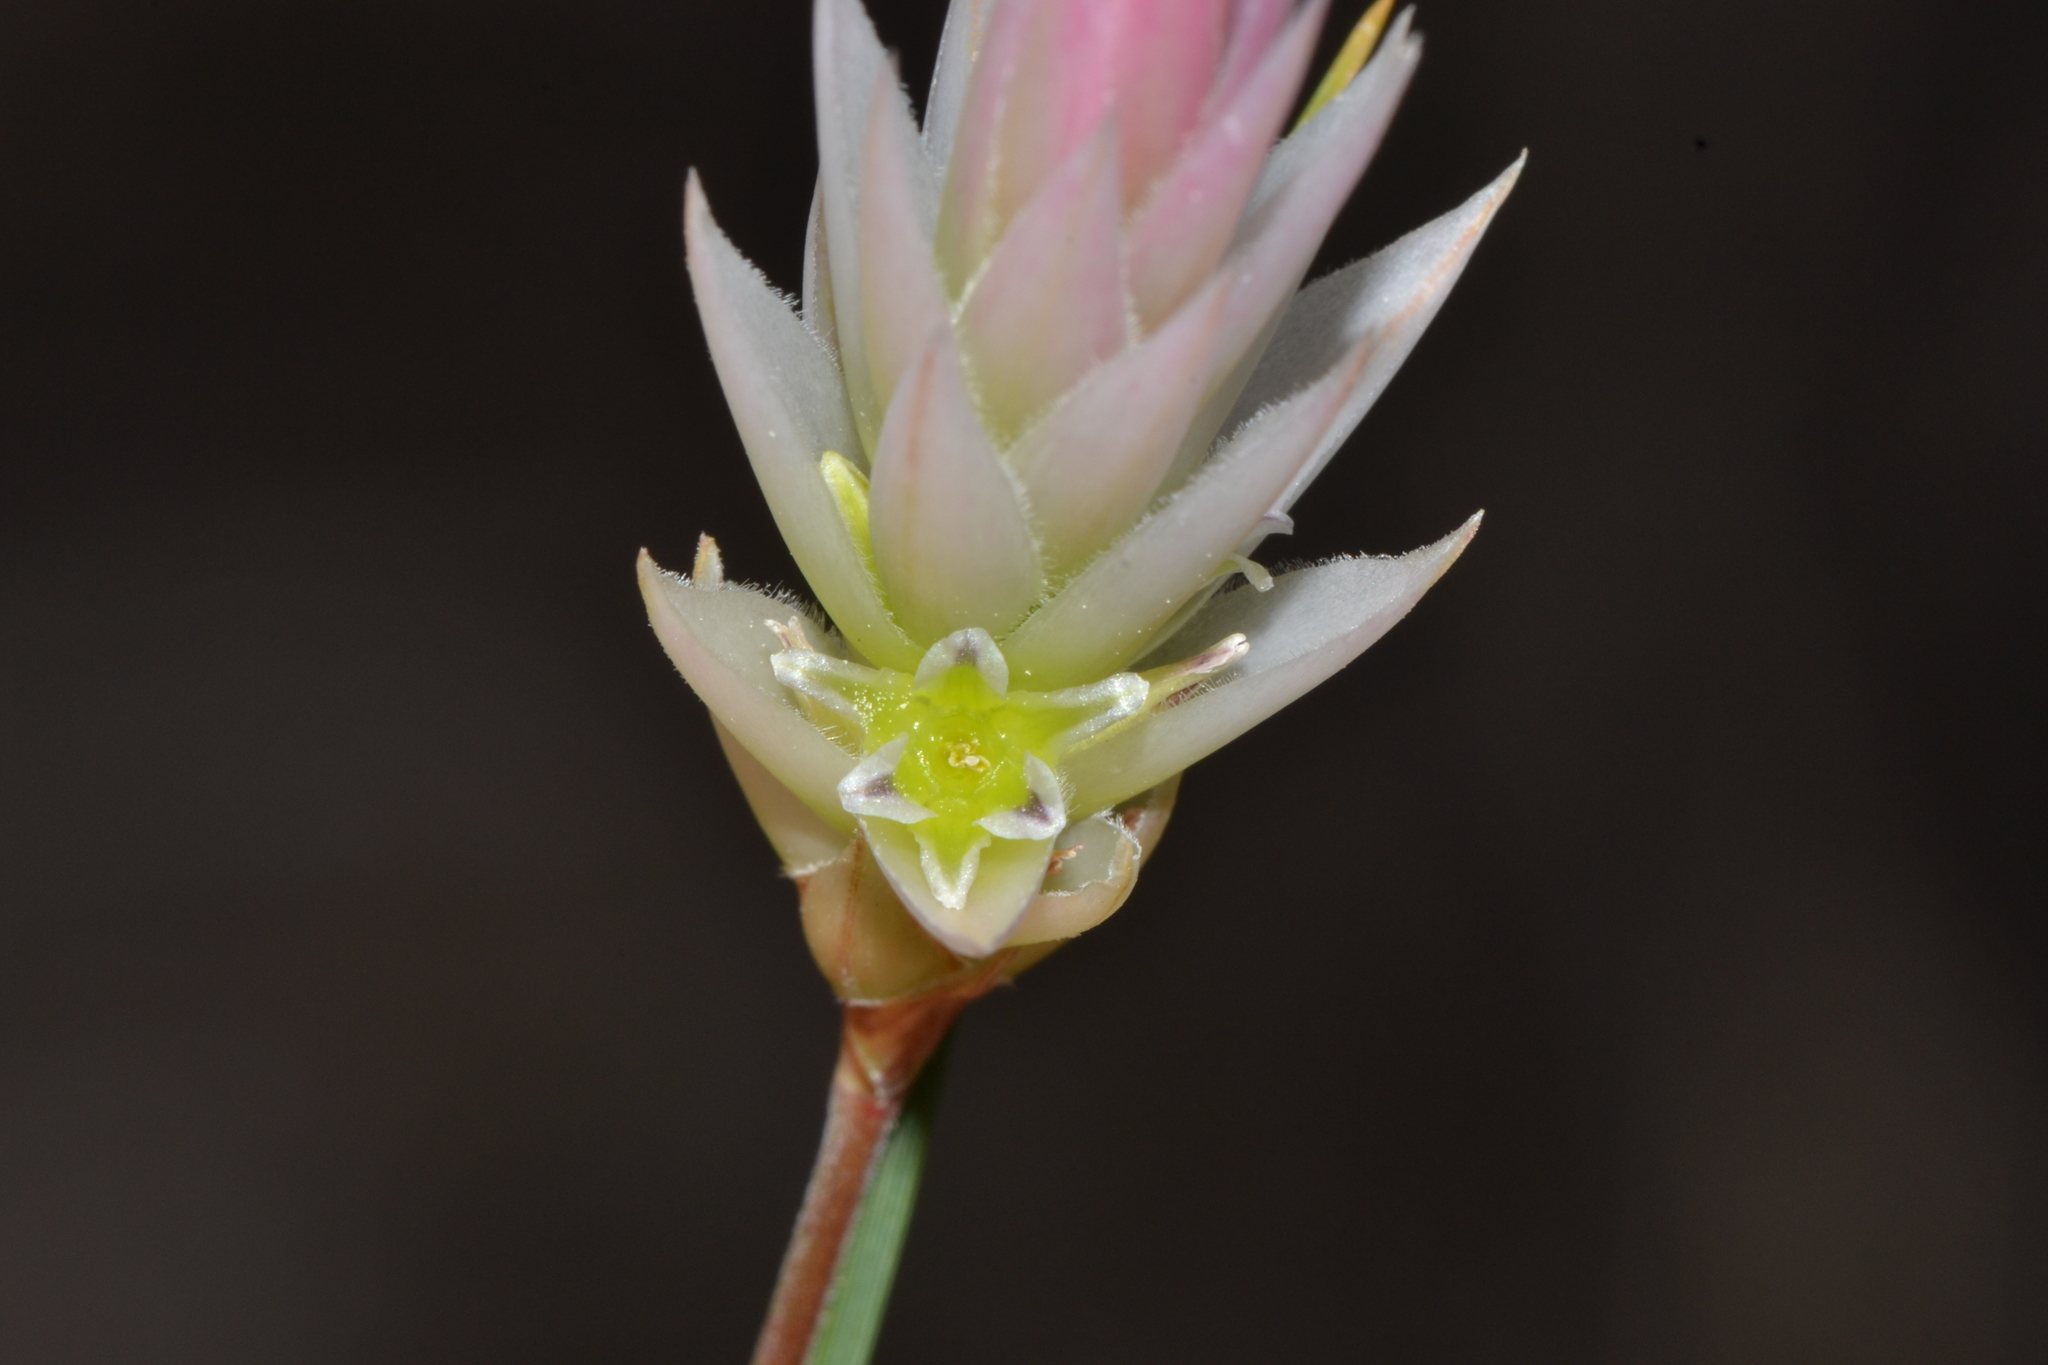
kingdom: Plantae
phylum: Tracheophyta
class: Liliopsida
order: Asparagales
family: Asphodelaceae
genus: Johnsonia
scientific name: Johnsonia pubescens
